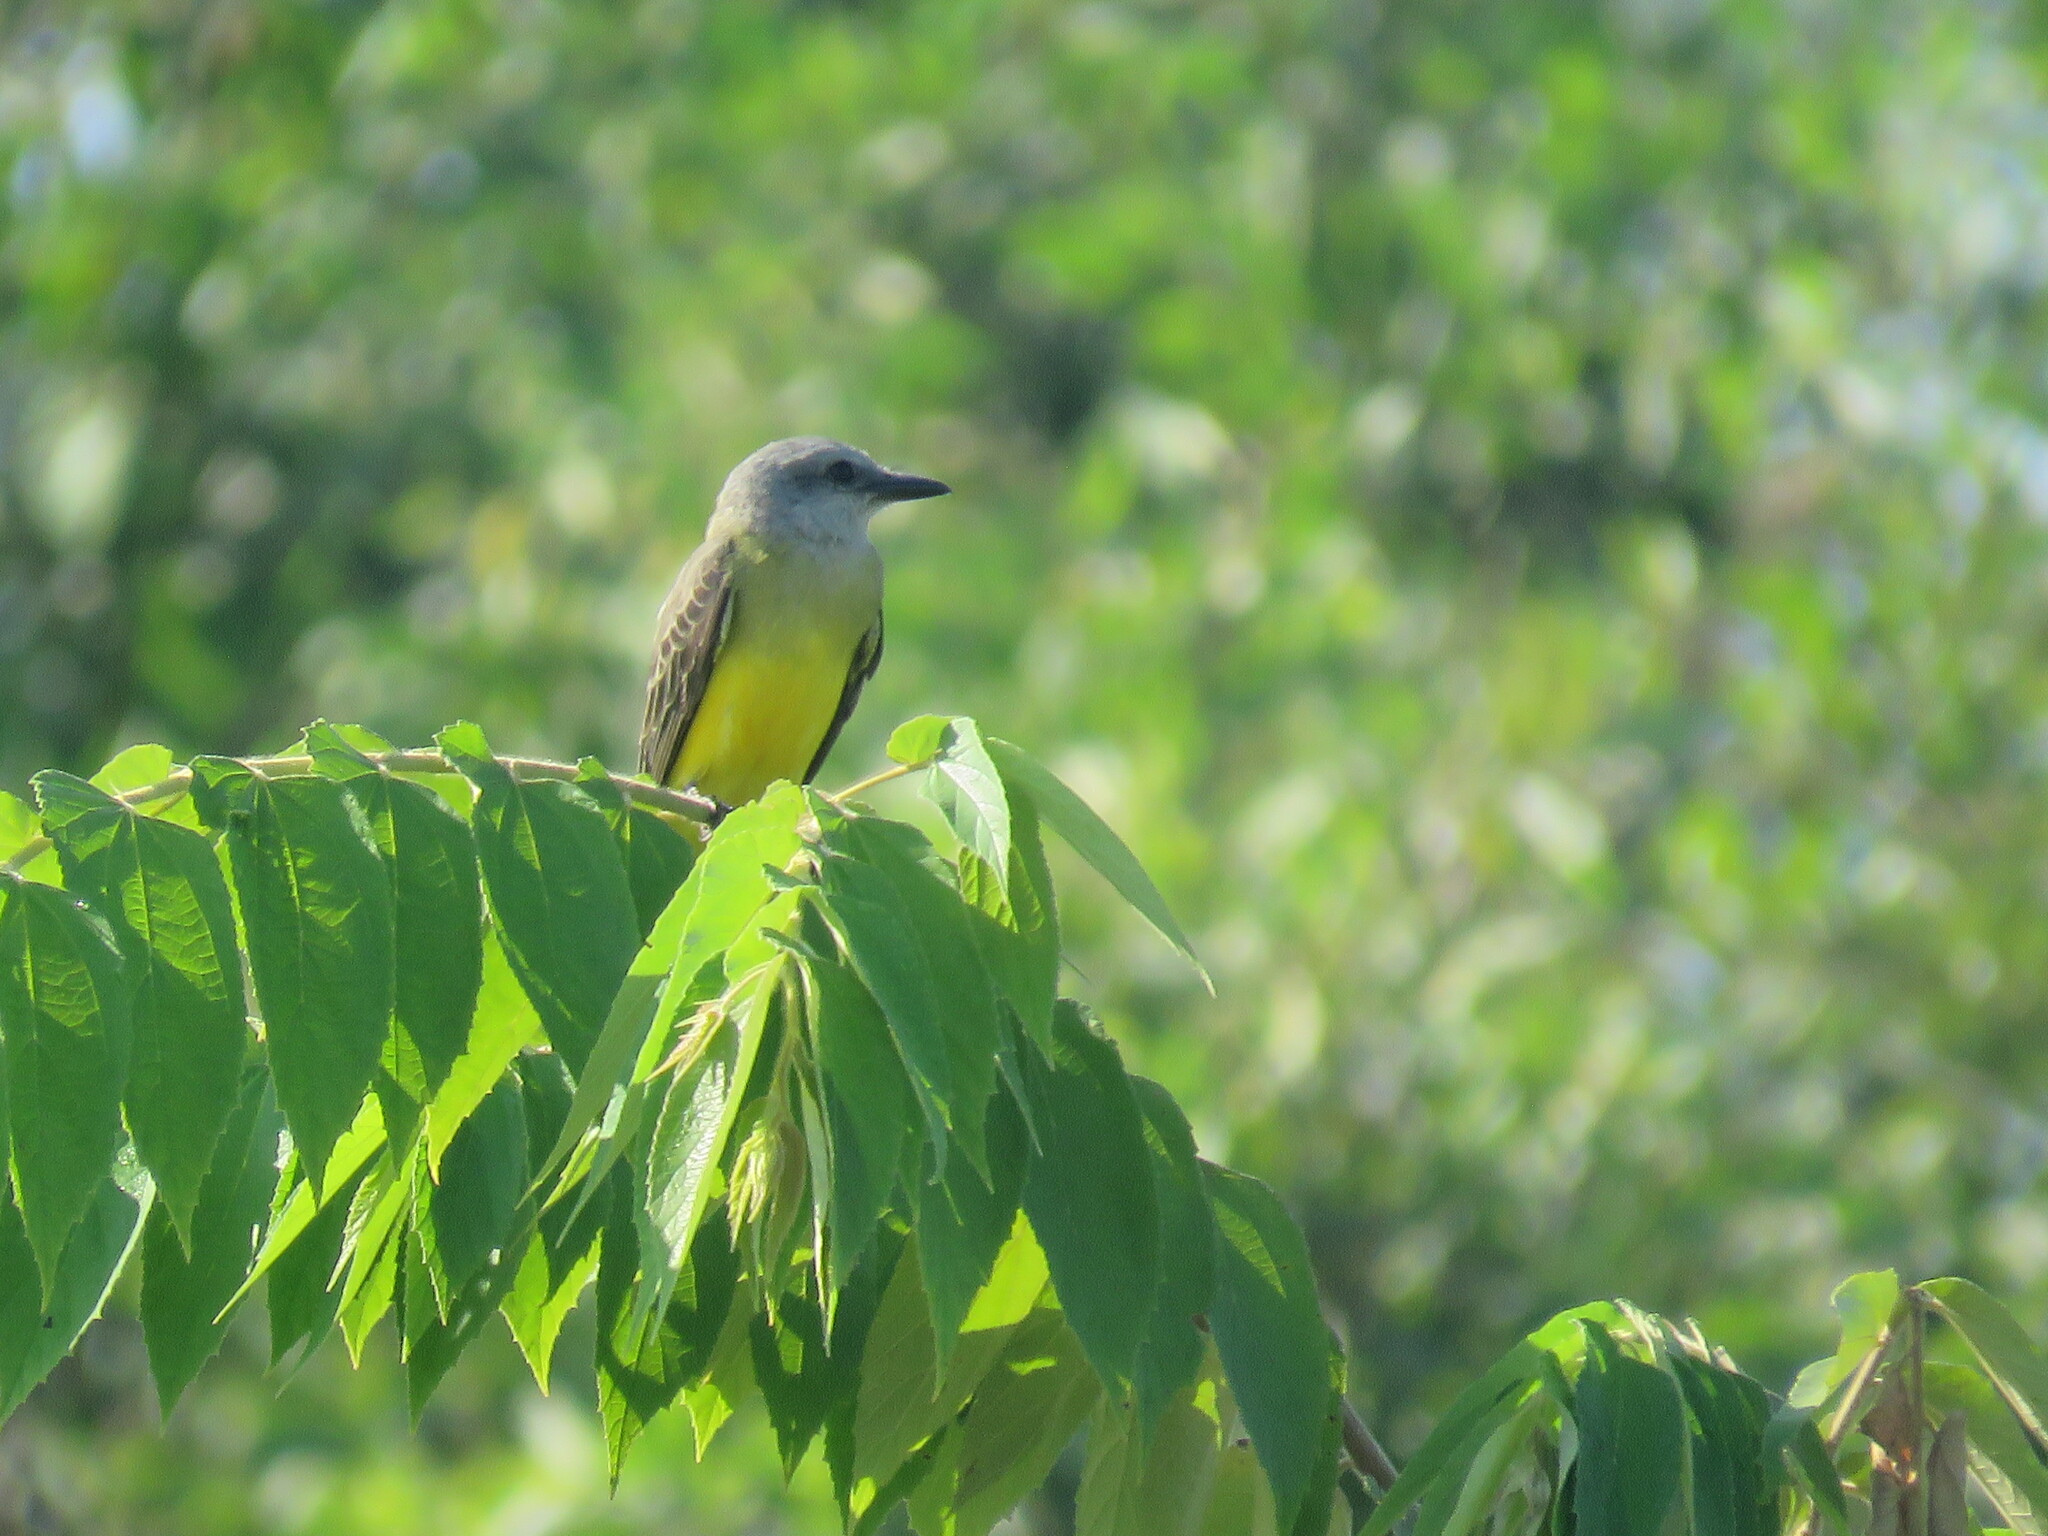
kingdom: Animalia
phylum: Chordata
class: Aves
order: Passeriformes
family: Tyrannidae
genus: Tyrannus
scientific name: Tyrannus melancholicus
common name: Tropical kingbird
